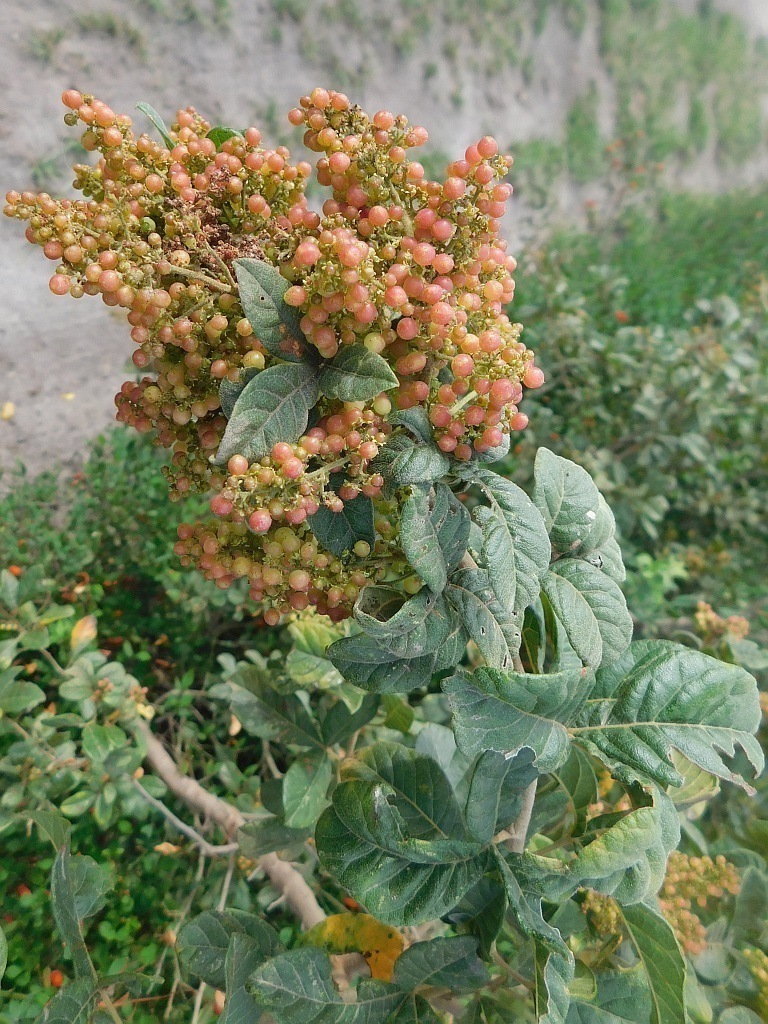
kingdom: Plantae
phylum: Tracheophyta
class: Magnoliopsida
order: Sapindales
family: Anacardiaceae
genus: Searsia
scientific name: Searsia rehmanniana
